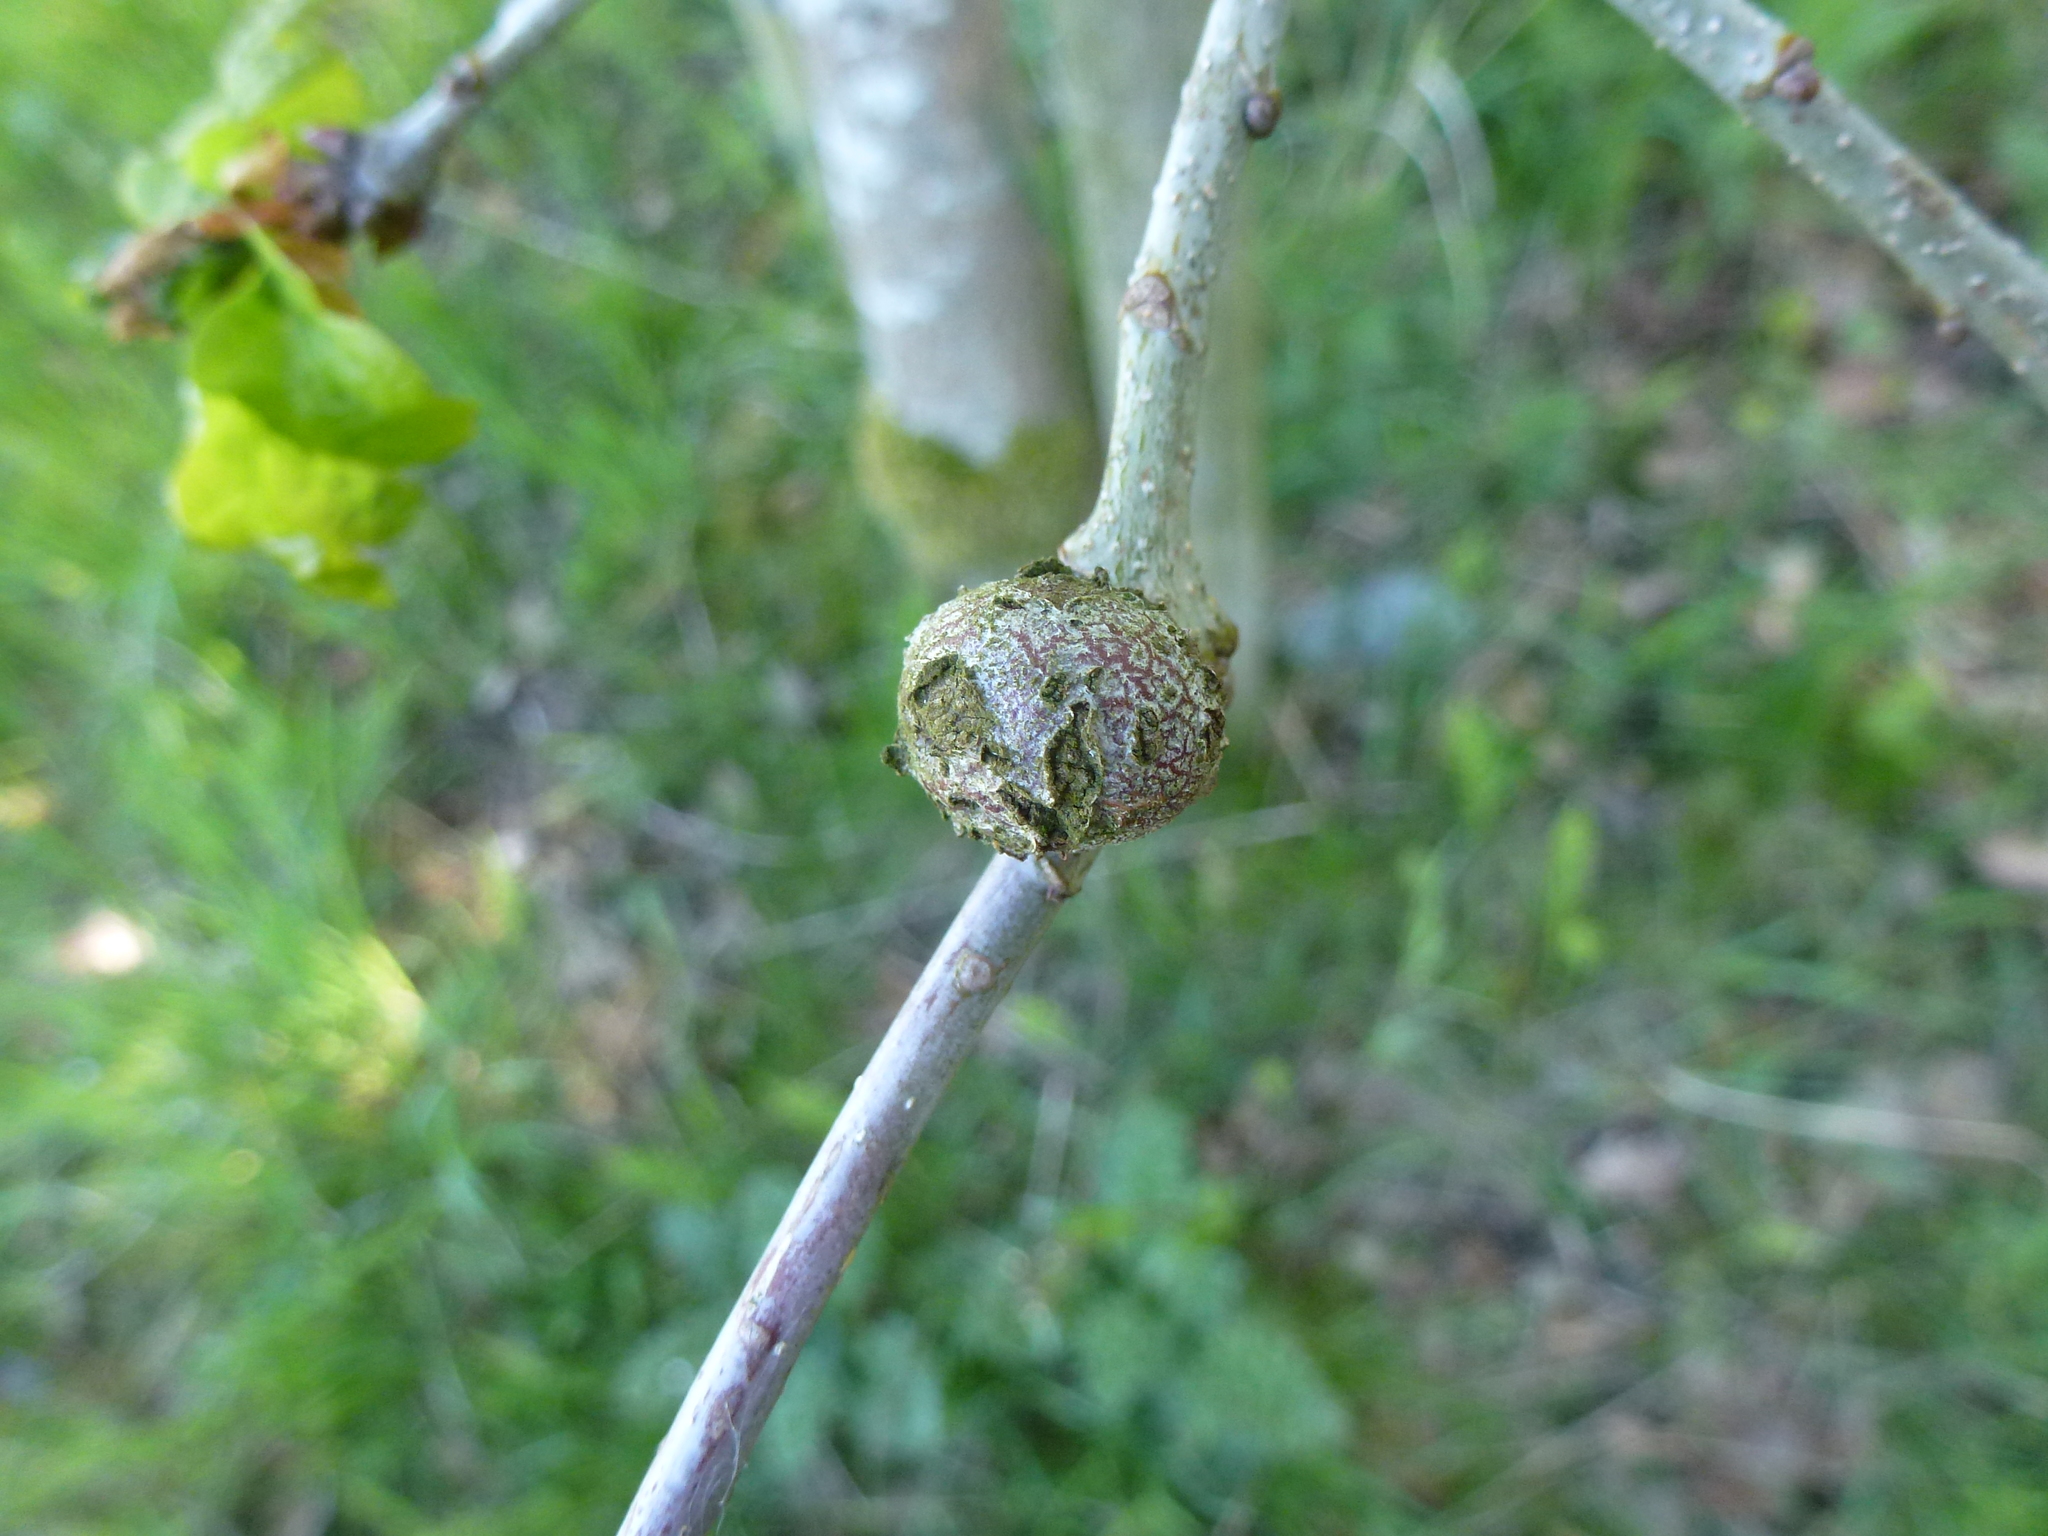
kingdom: Animalia
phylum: Arthropoda
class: Insecta
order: Hymenoptera
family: Cynipidae
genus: Andricus
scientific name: Andricus lignicolus
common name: Cola-nut gall
